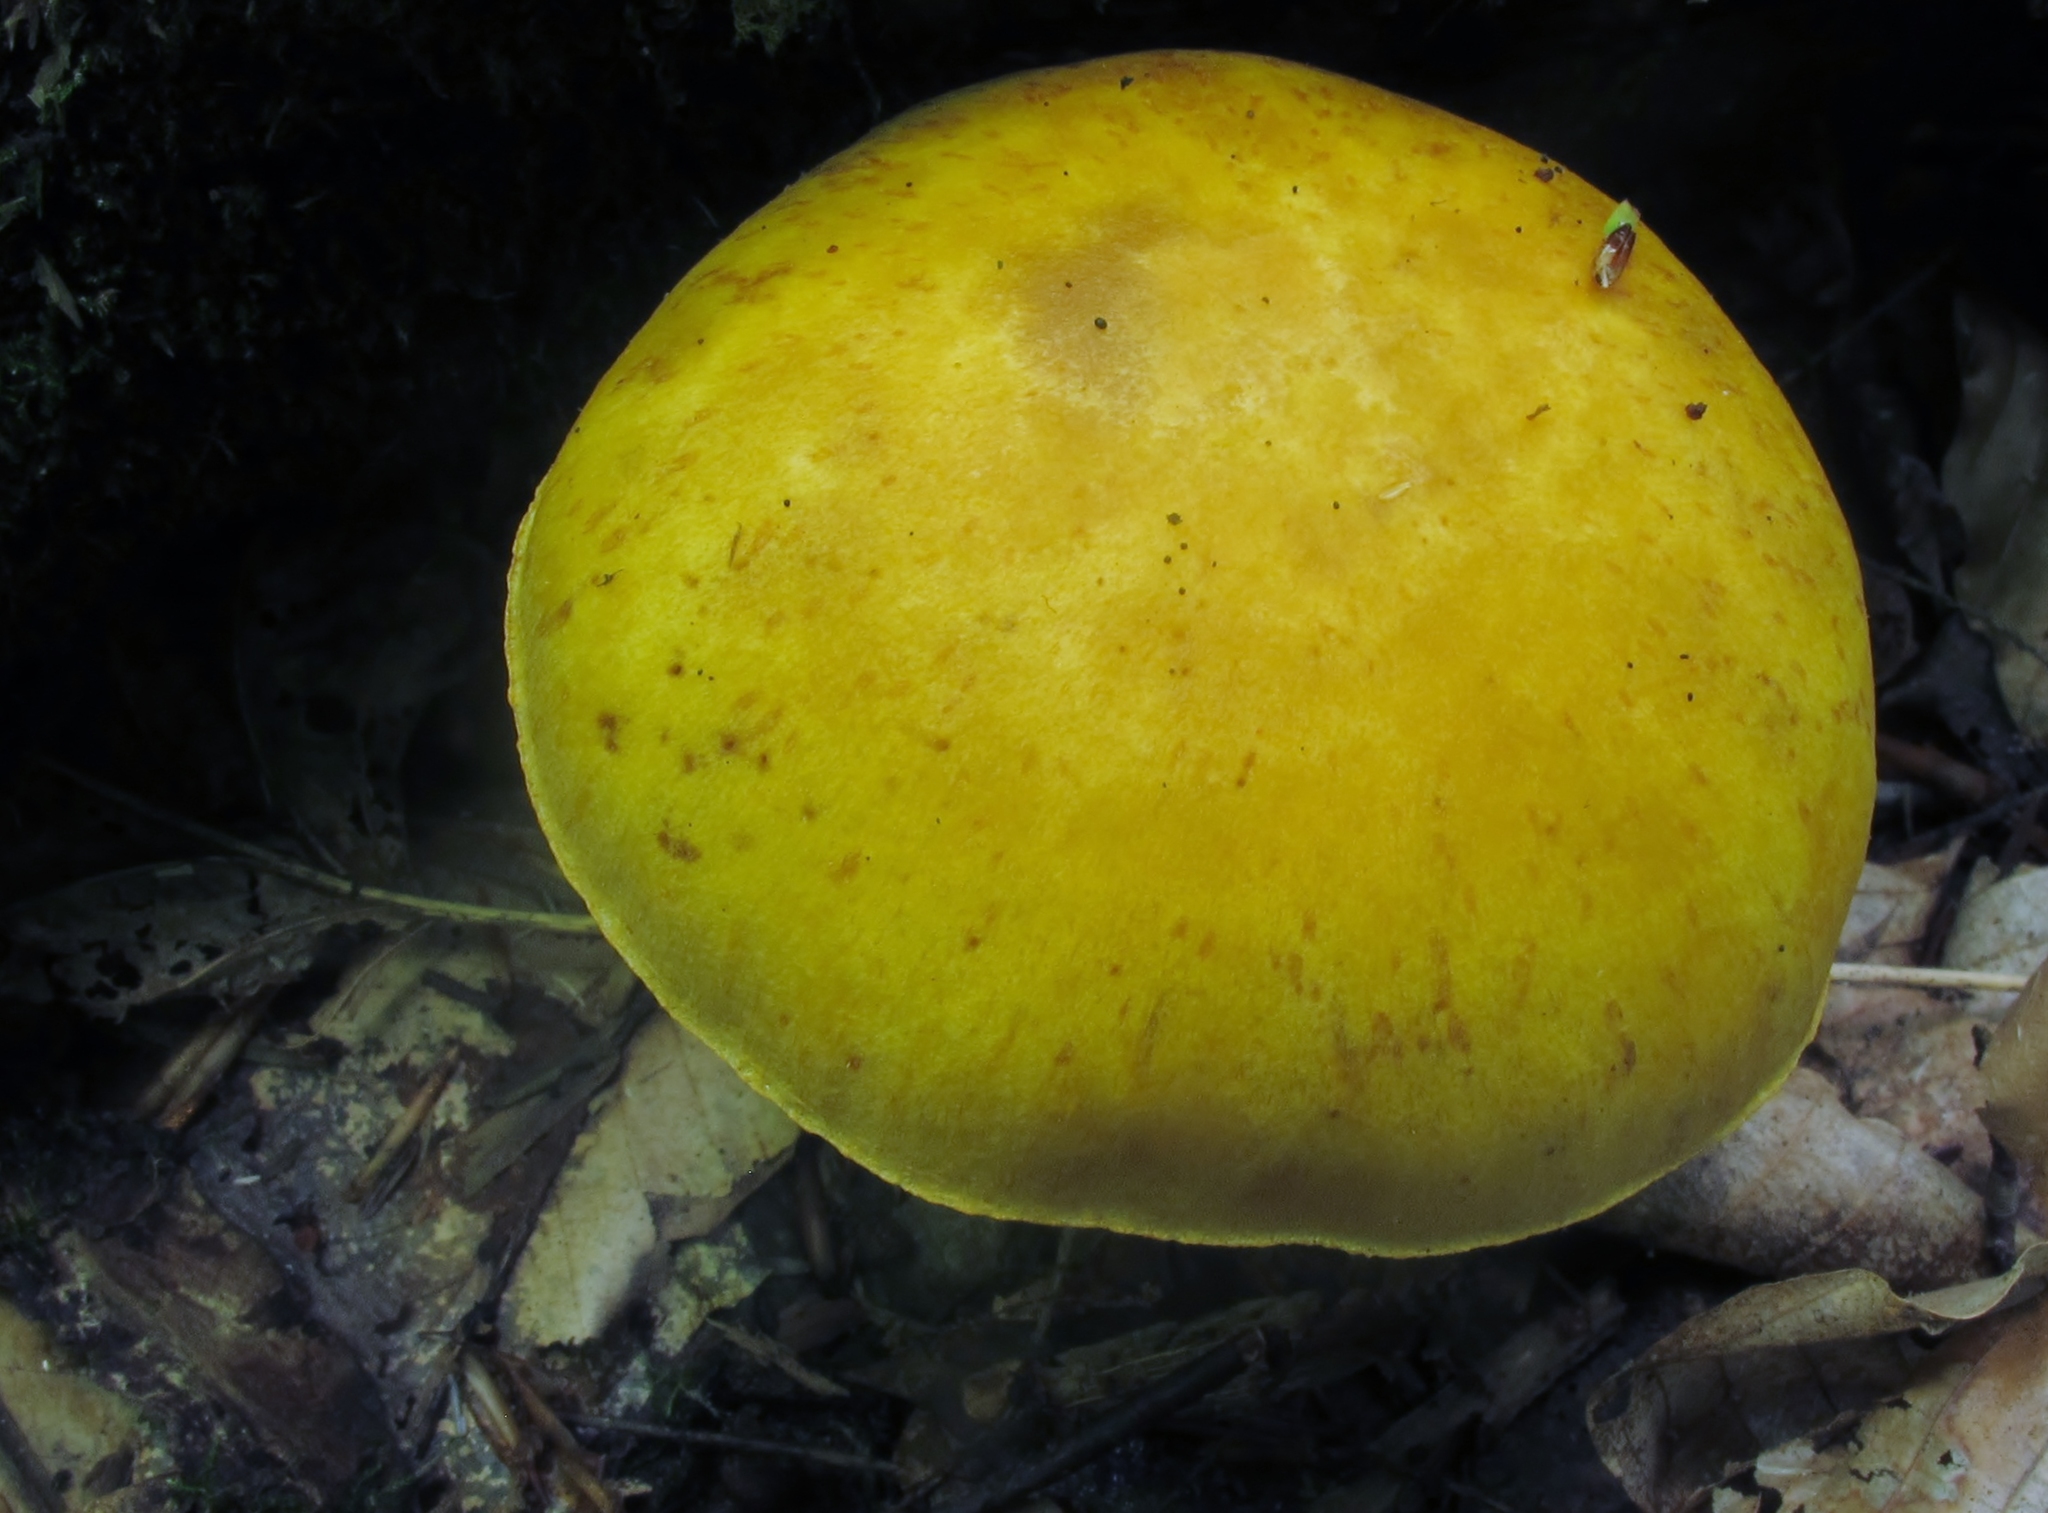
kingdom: Fungi
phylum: Basidiomycota
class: Agaricomycetes
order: Agaricales
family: Hymenogastraceae
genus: Gymnopilus
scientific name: Gymnopilus luteus
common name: Yellow gymnopilus
